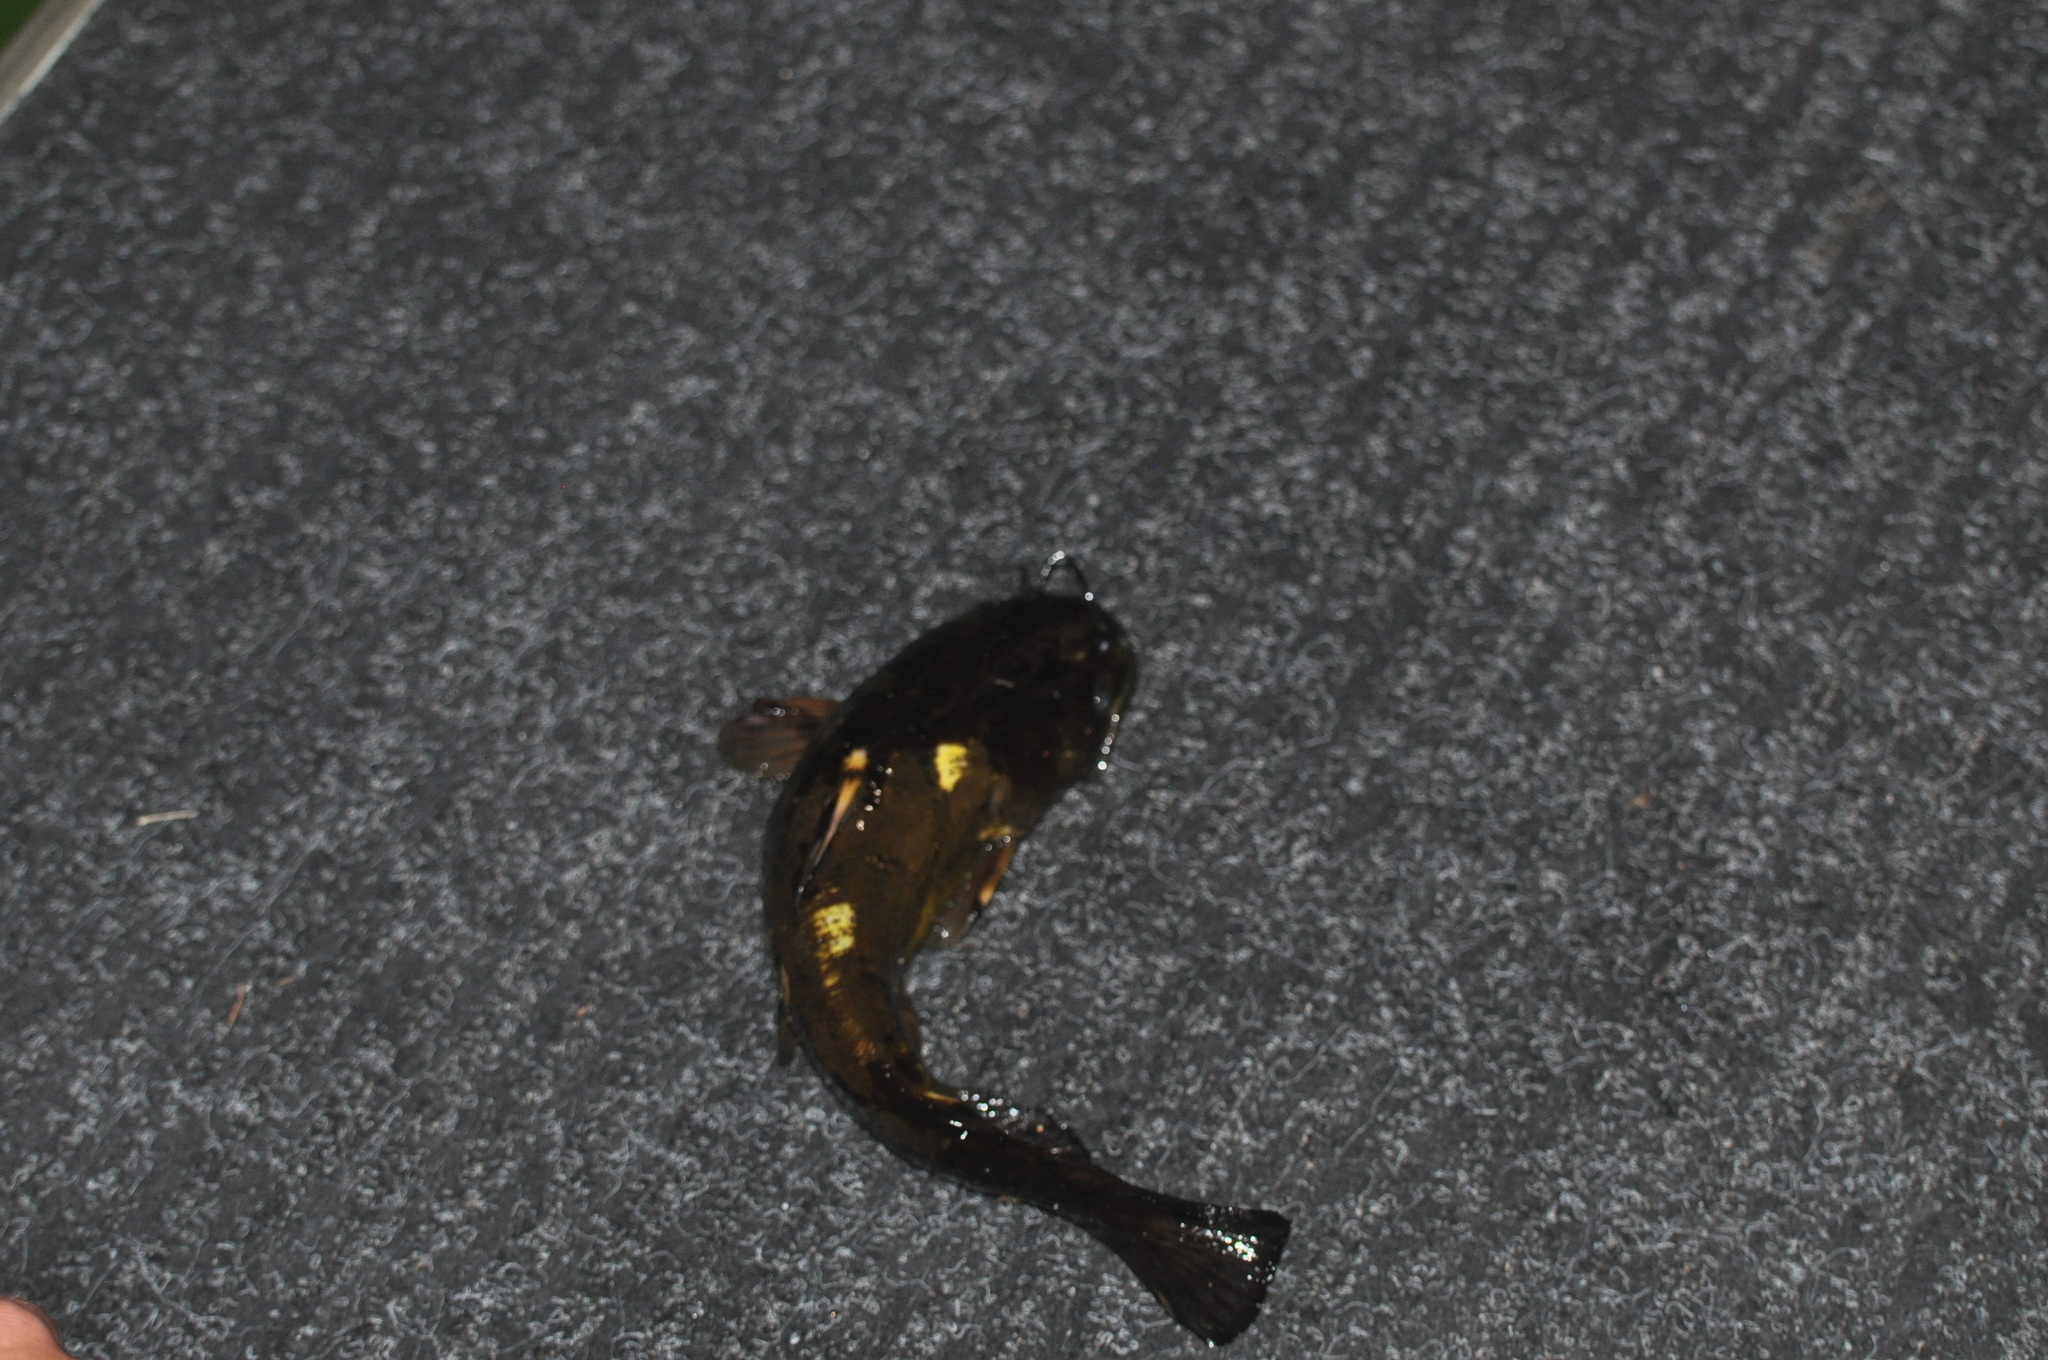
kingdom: Animalia
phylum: Chordata
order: Siluriformes
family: Ictaluridae
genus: Ameiurus
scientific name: Ameiurus natalis
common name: Yellow bullhead
